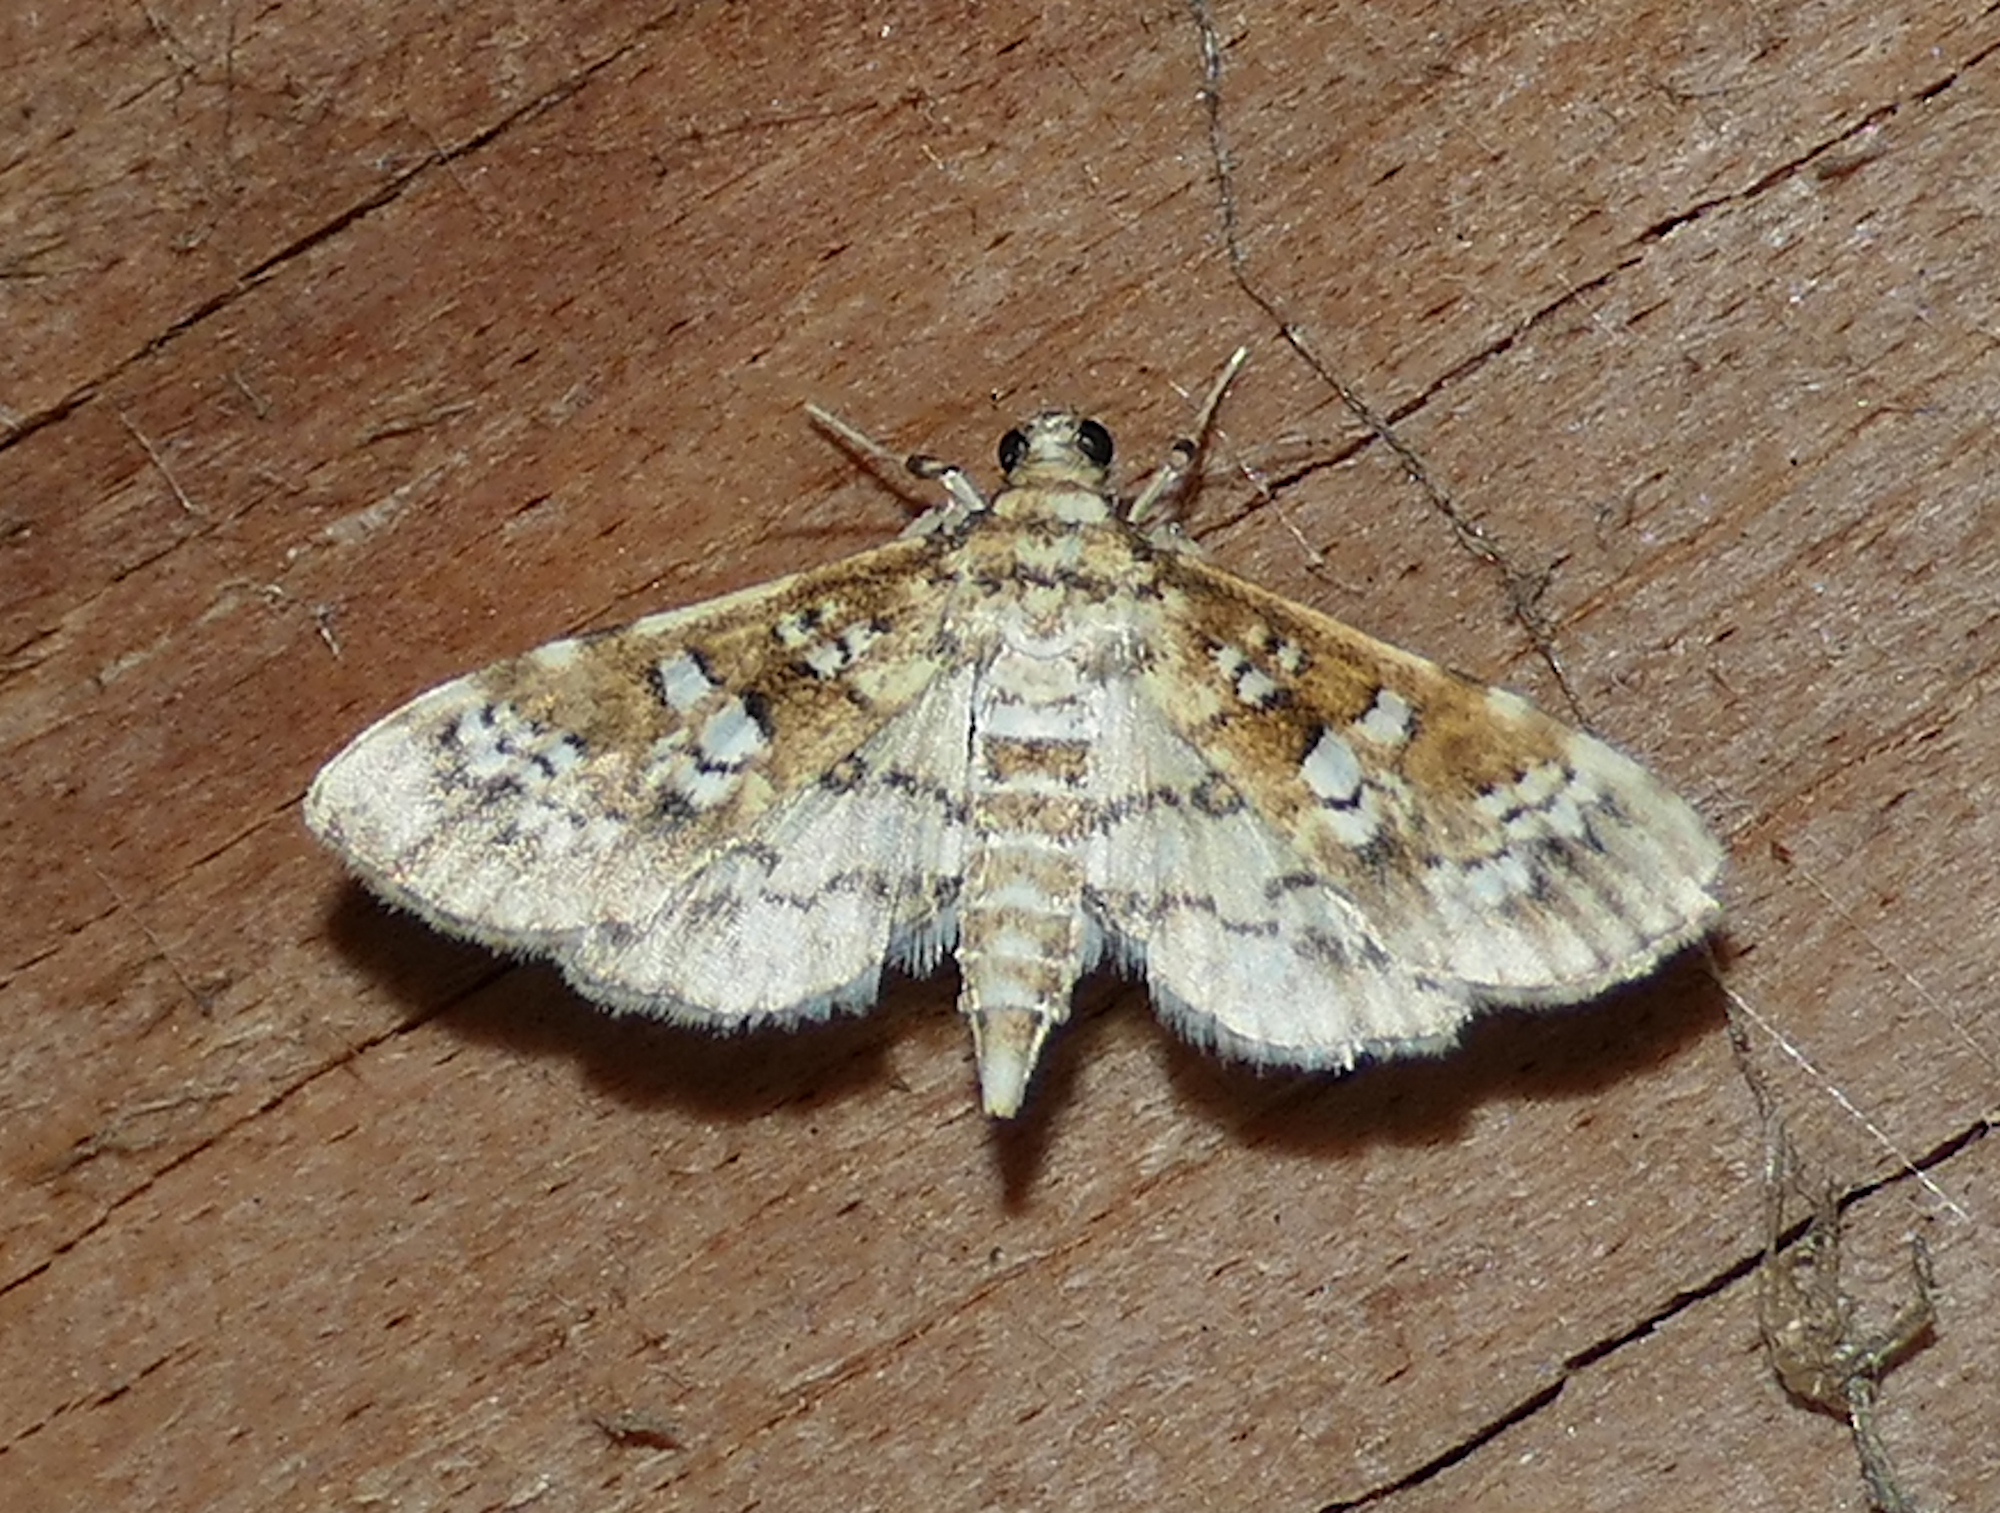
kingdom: Animalia
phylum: Arthropoda
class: Insecta
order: Lepidoptera
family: Crambidae
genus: Samea
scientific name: Samea multiplicalis
